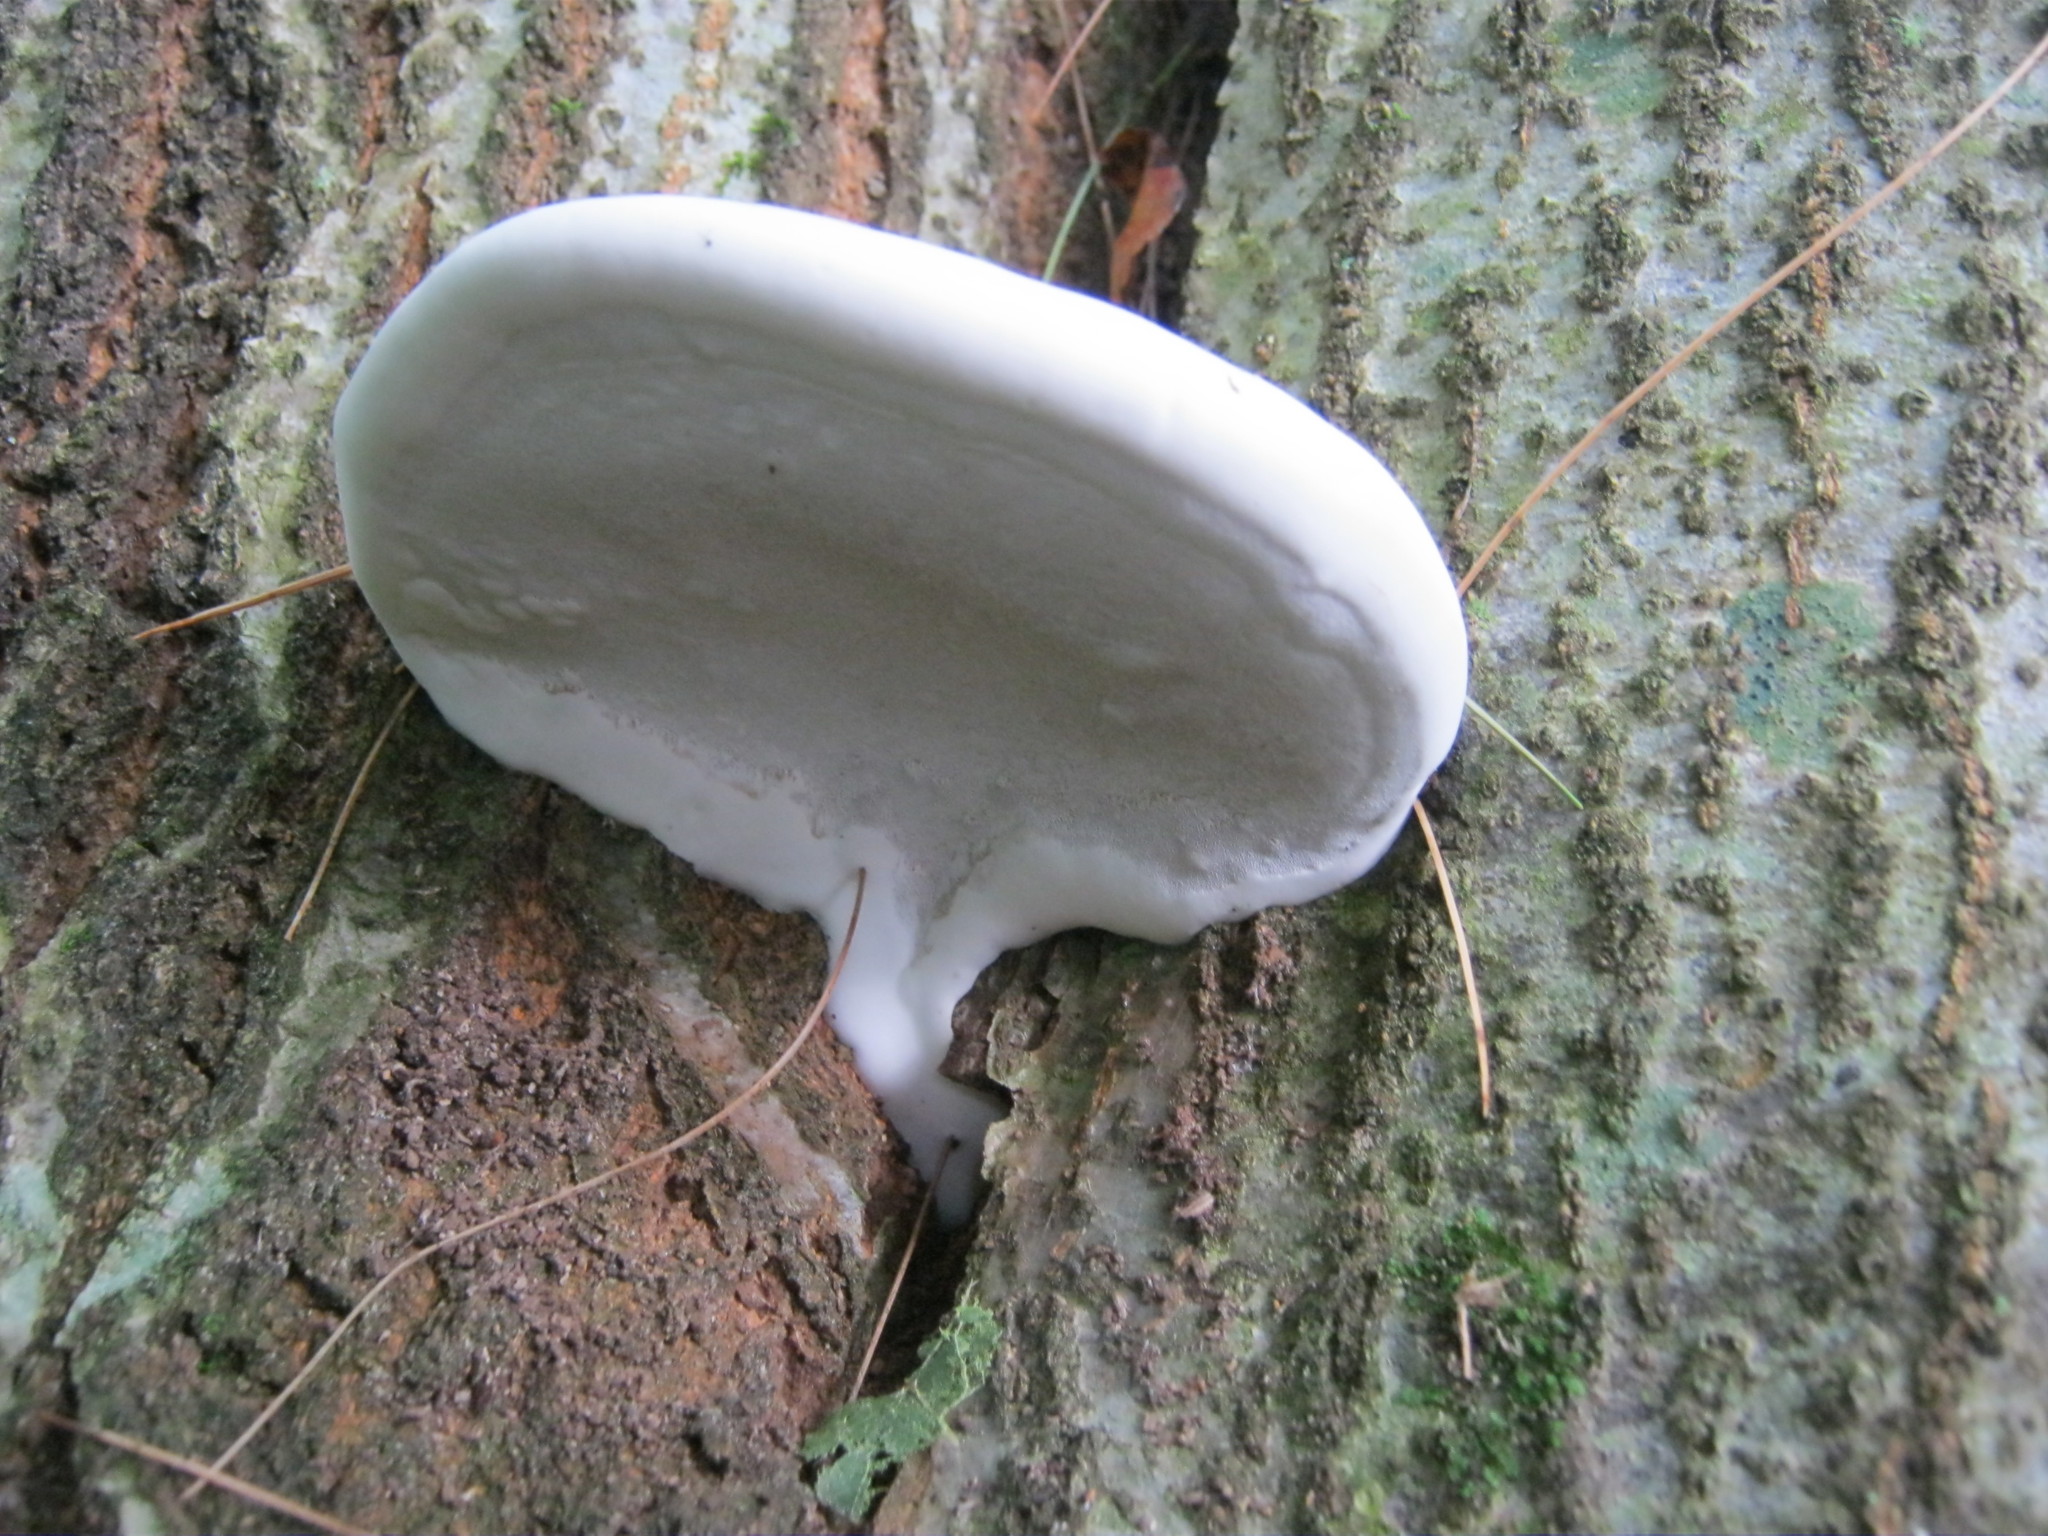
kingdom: Fungi
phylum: Basidiomycota
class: Agaricomycetes
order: Polyporales
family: Polyporaceae
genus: Ganoderma
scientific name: Ganoderma applanatum
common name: Artist's bracket
